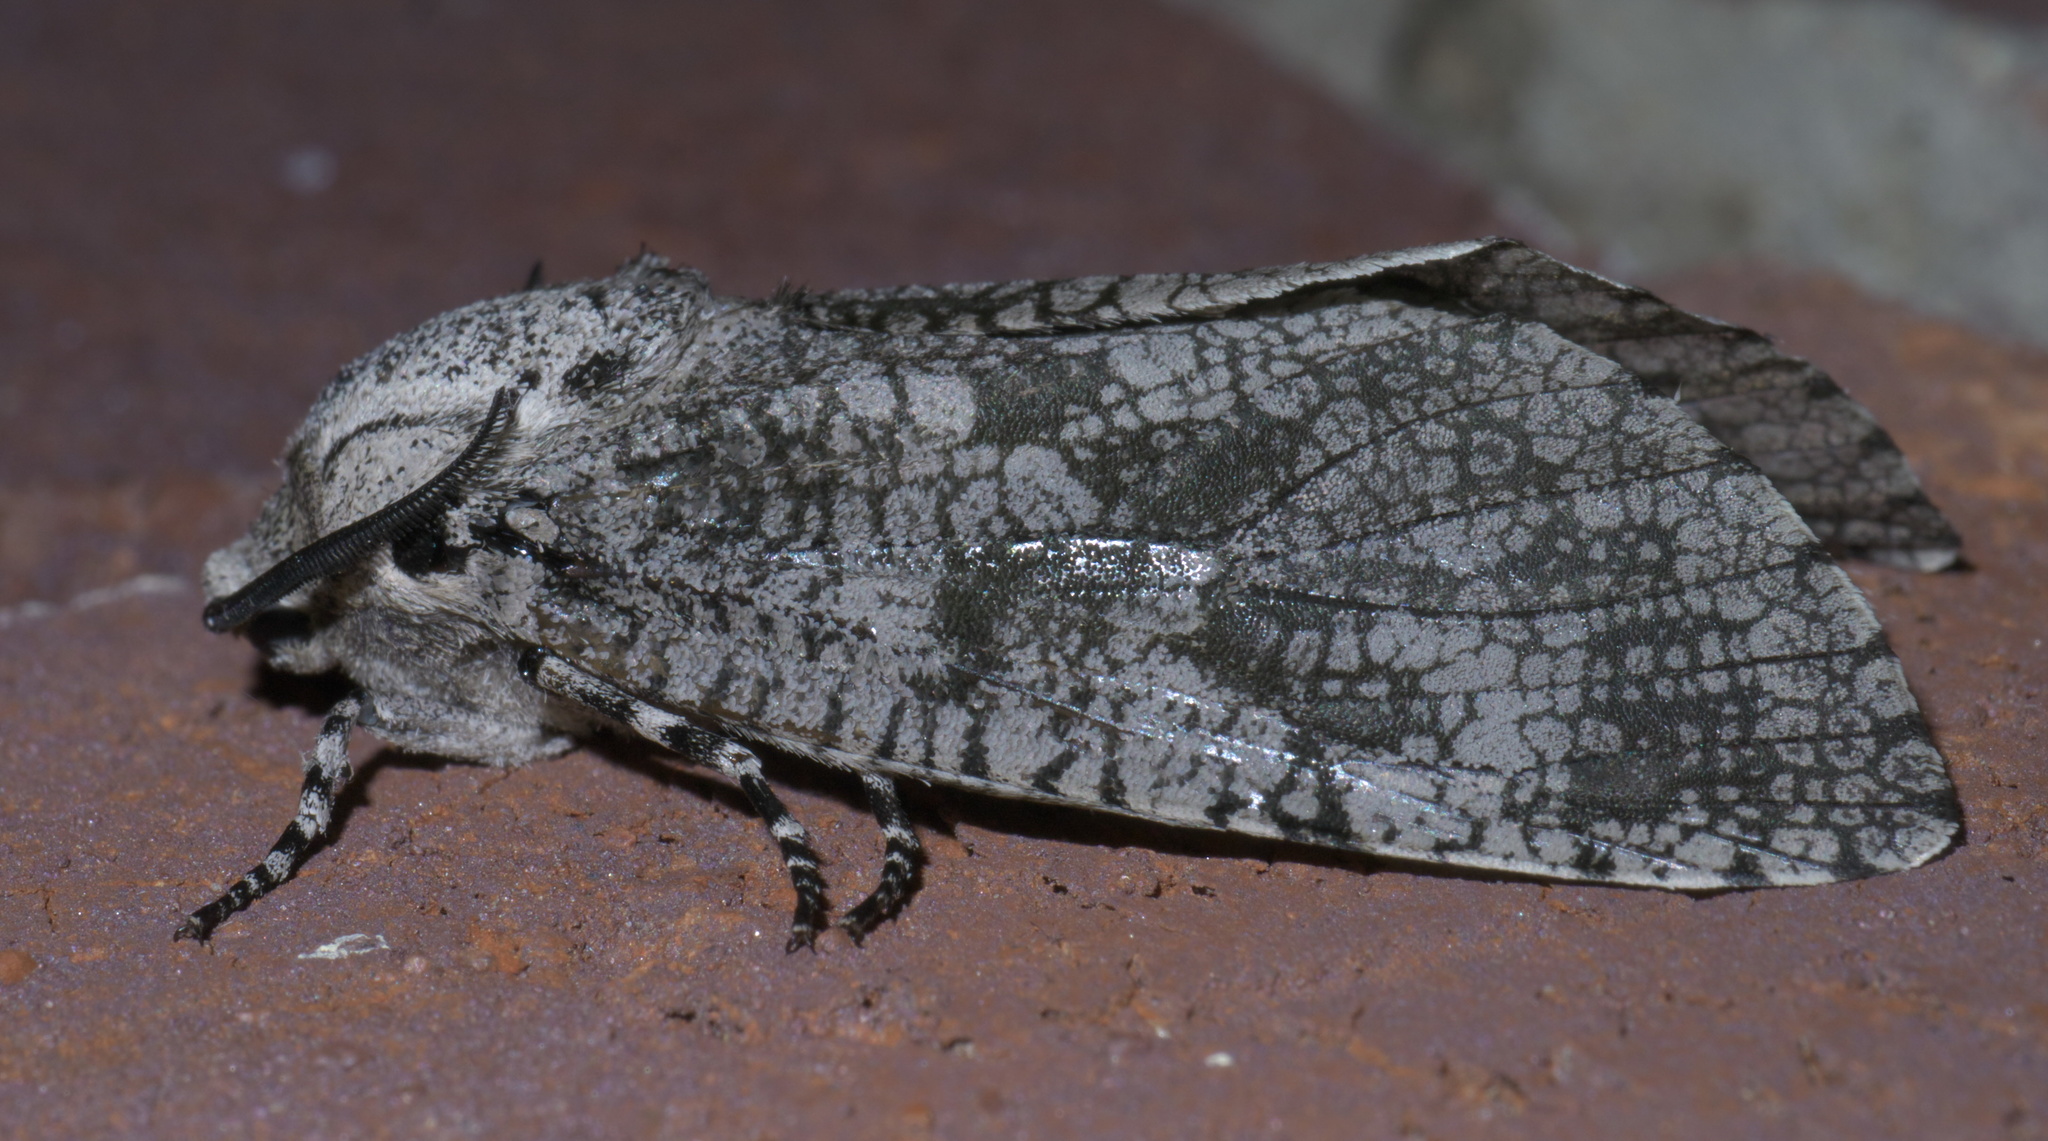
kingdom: Animalia
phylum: Arthropoda
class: Insecta
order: Lepidoptera
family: Cossidae
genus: Prionoxystus
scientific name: Prionoxystus robiniae
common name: Carpenterworm
